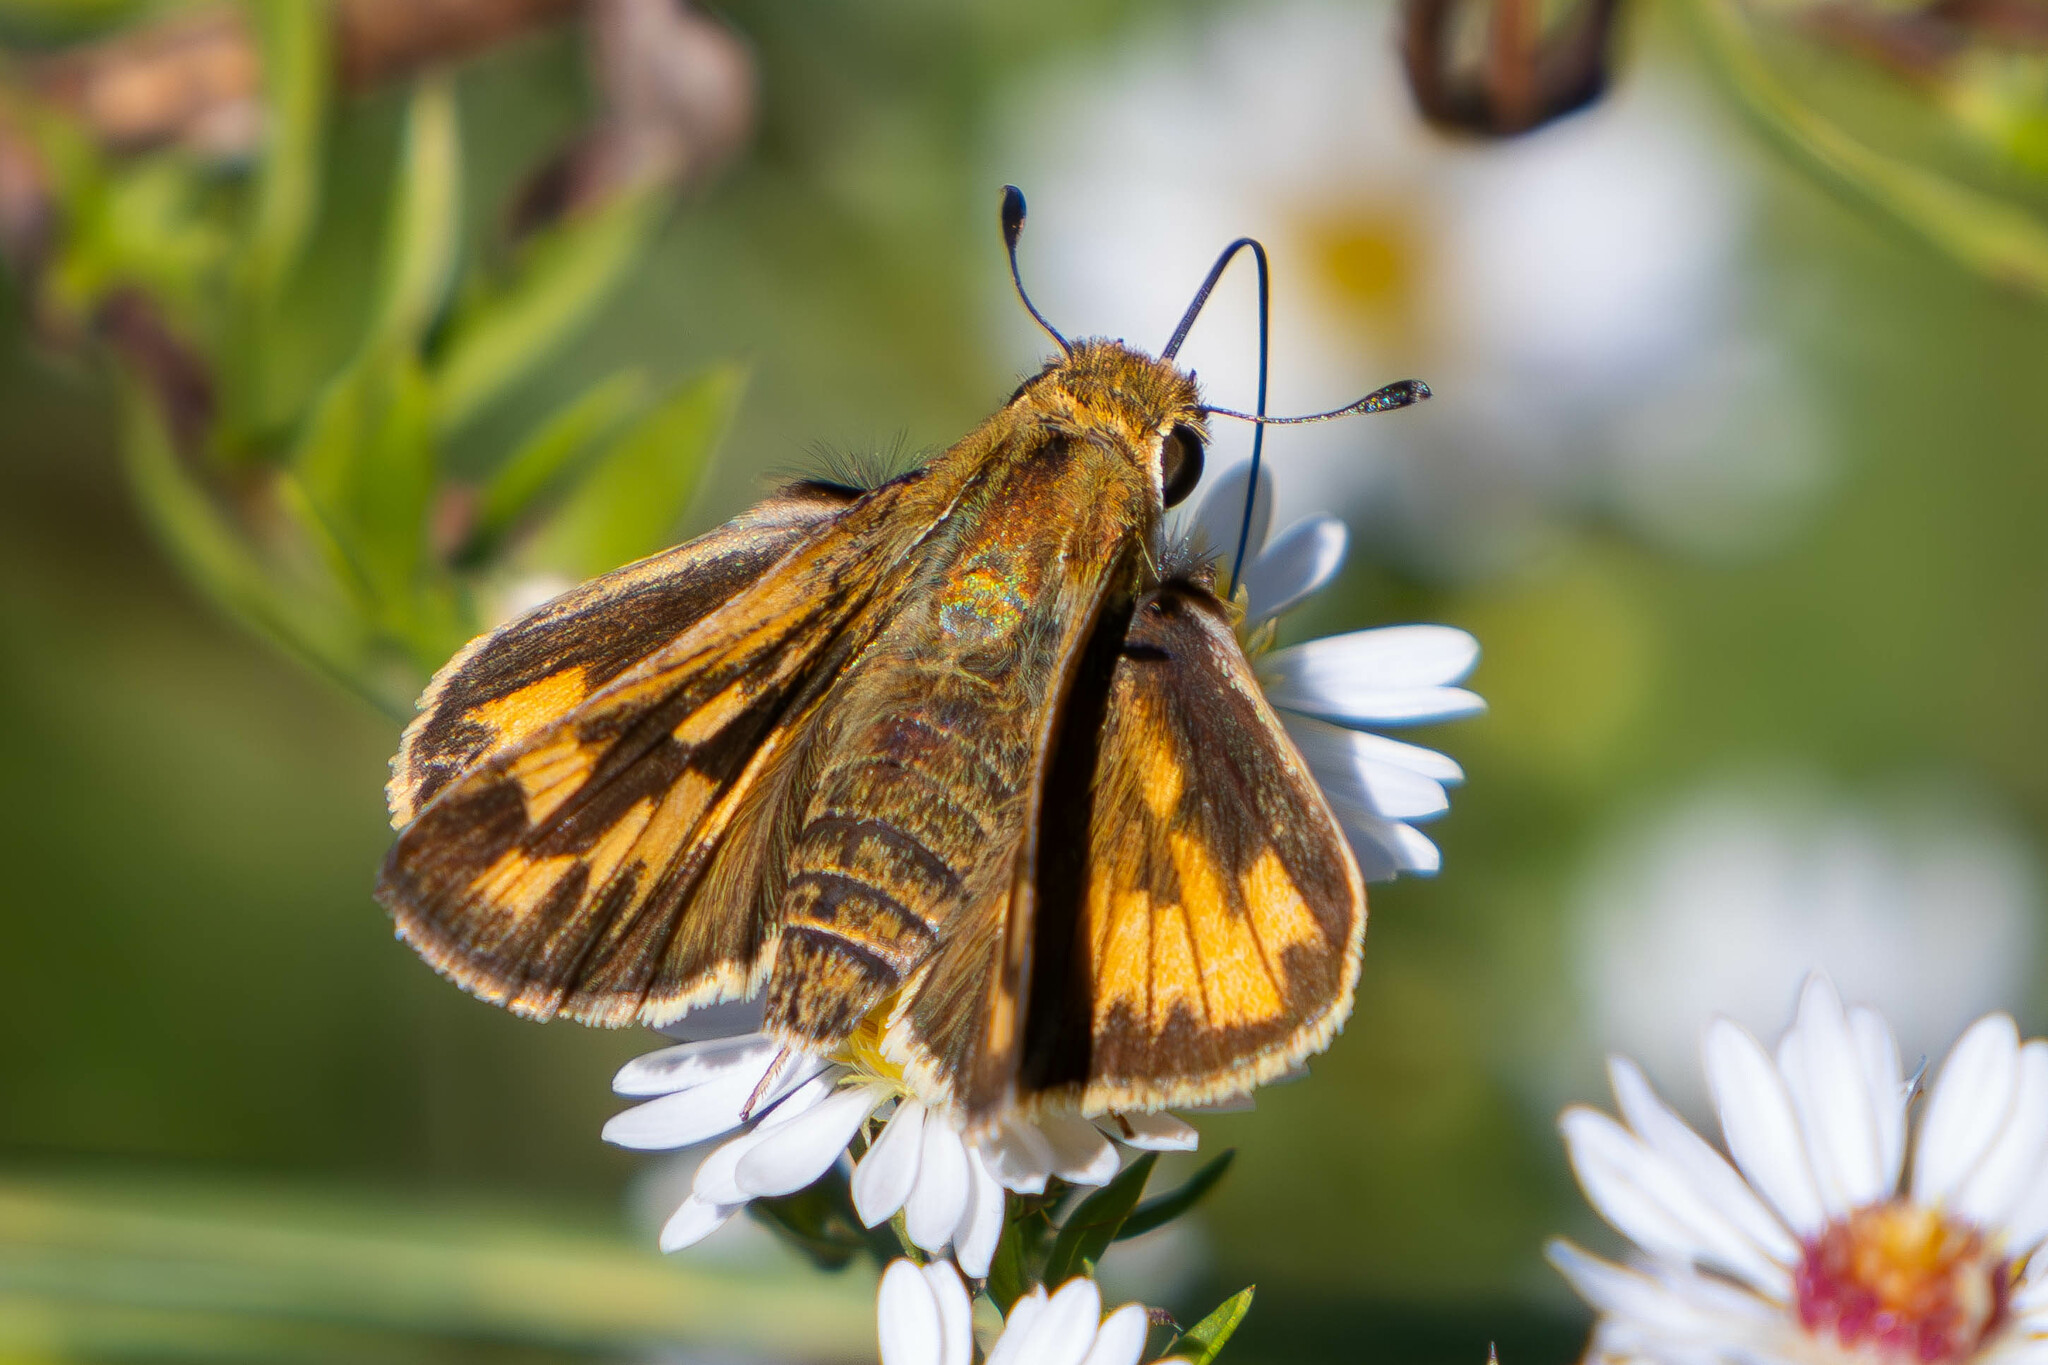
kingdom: Animalia
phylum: Arthropoda
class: Insecta
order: Lepidoptera
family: Hesperiidae
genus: Hylephila
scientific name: Hylephila phyleus
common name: Fiery skipper
